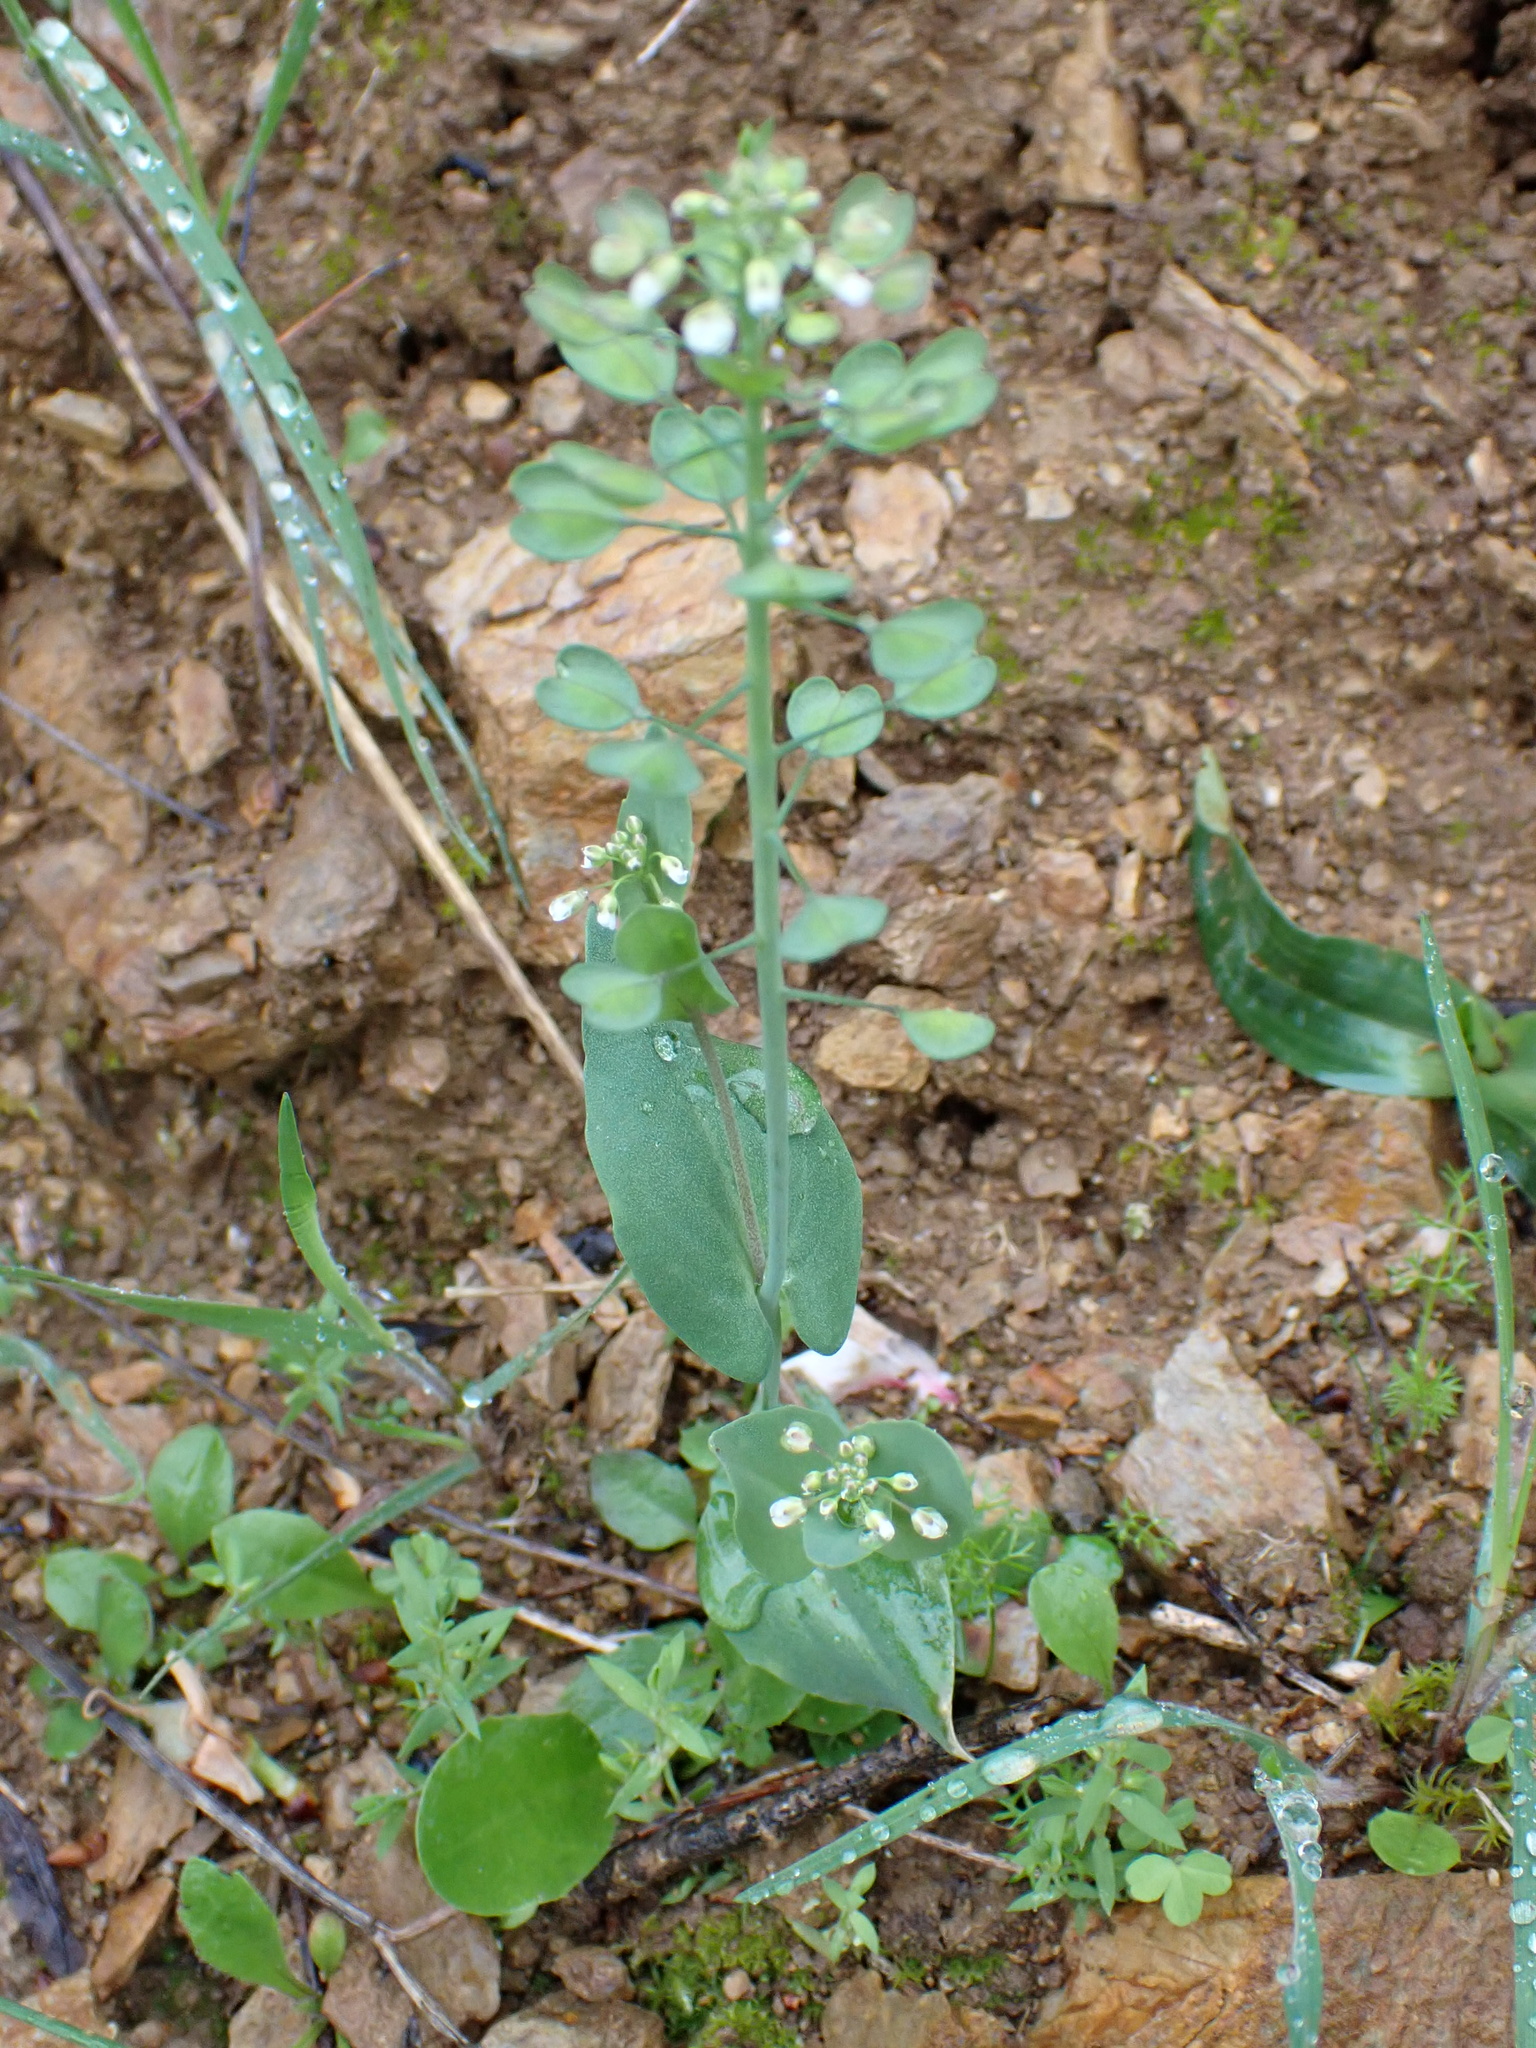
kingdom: Plantae
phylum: Tracheophyta
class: Magnoliopsida
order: Brassicales
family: Brassicaceae
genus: Noccaea
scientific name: Noccaea perfoliata
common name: Perfoliate pennycress
